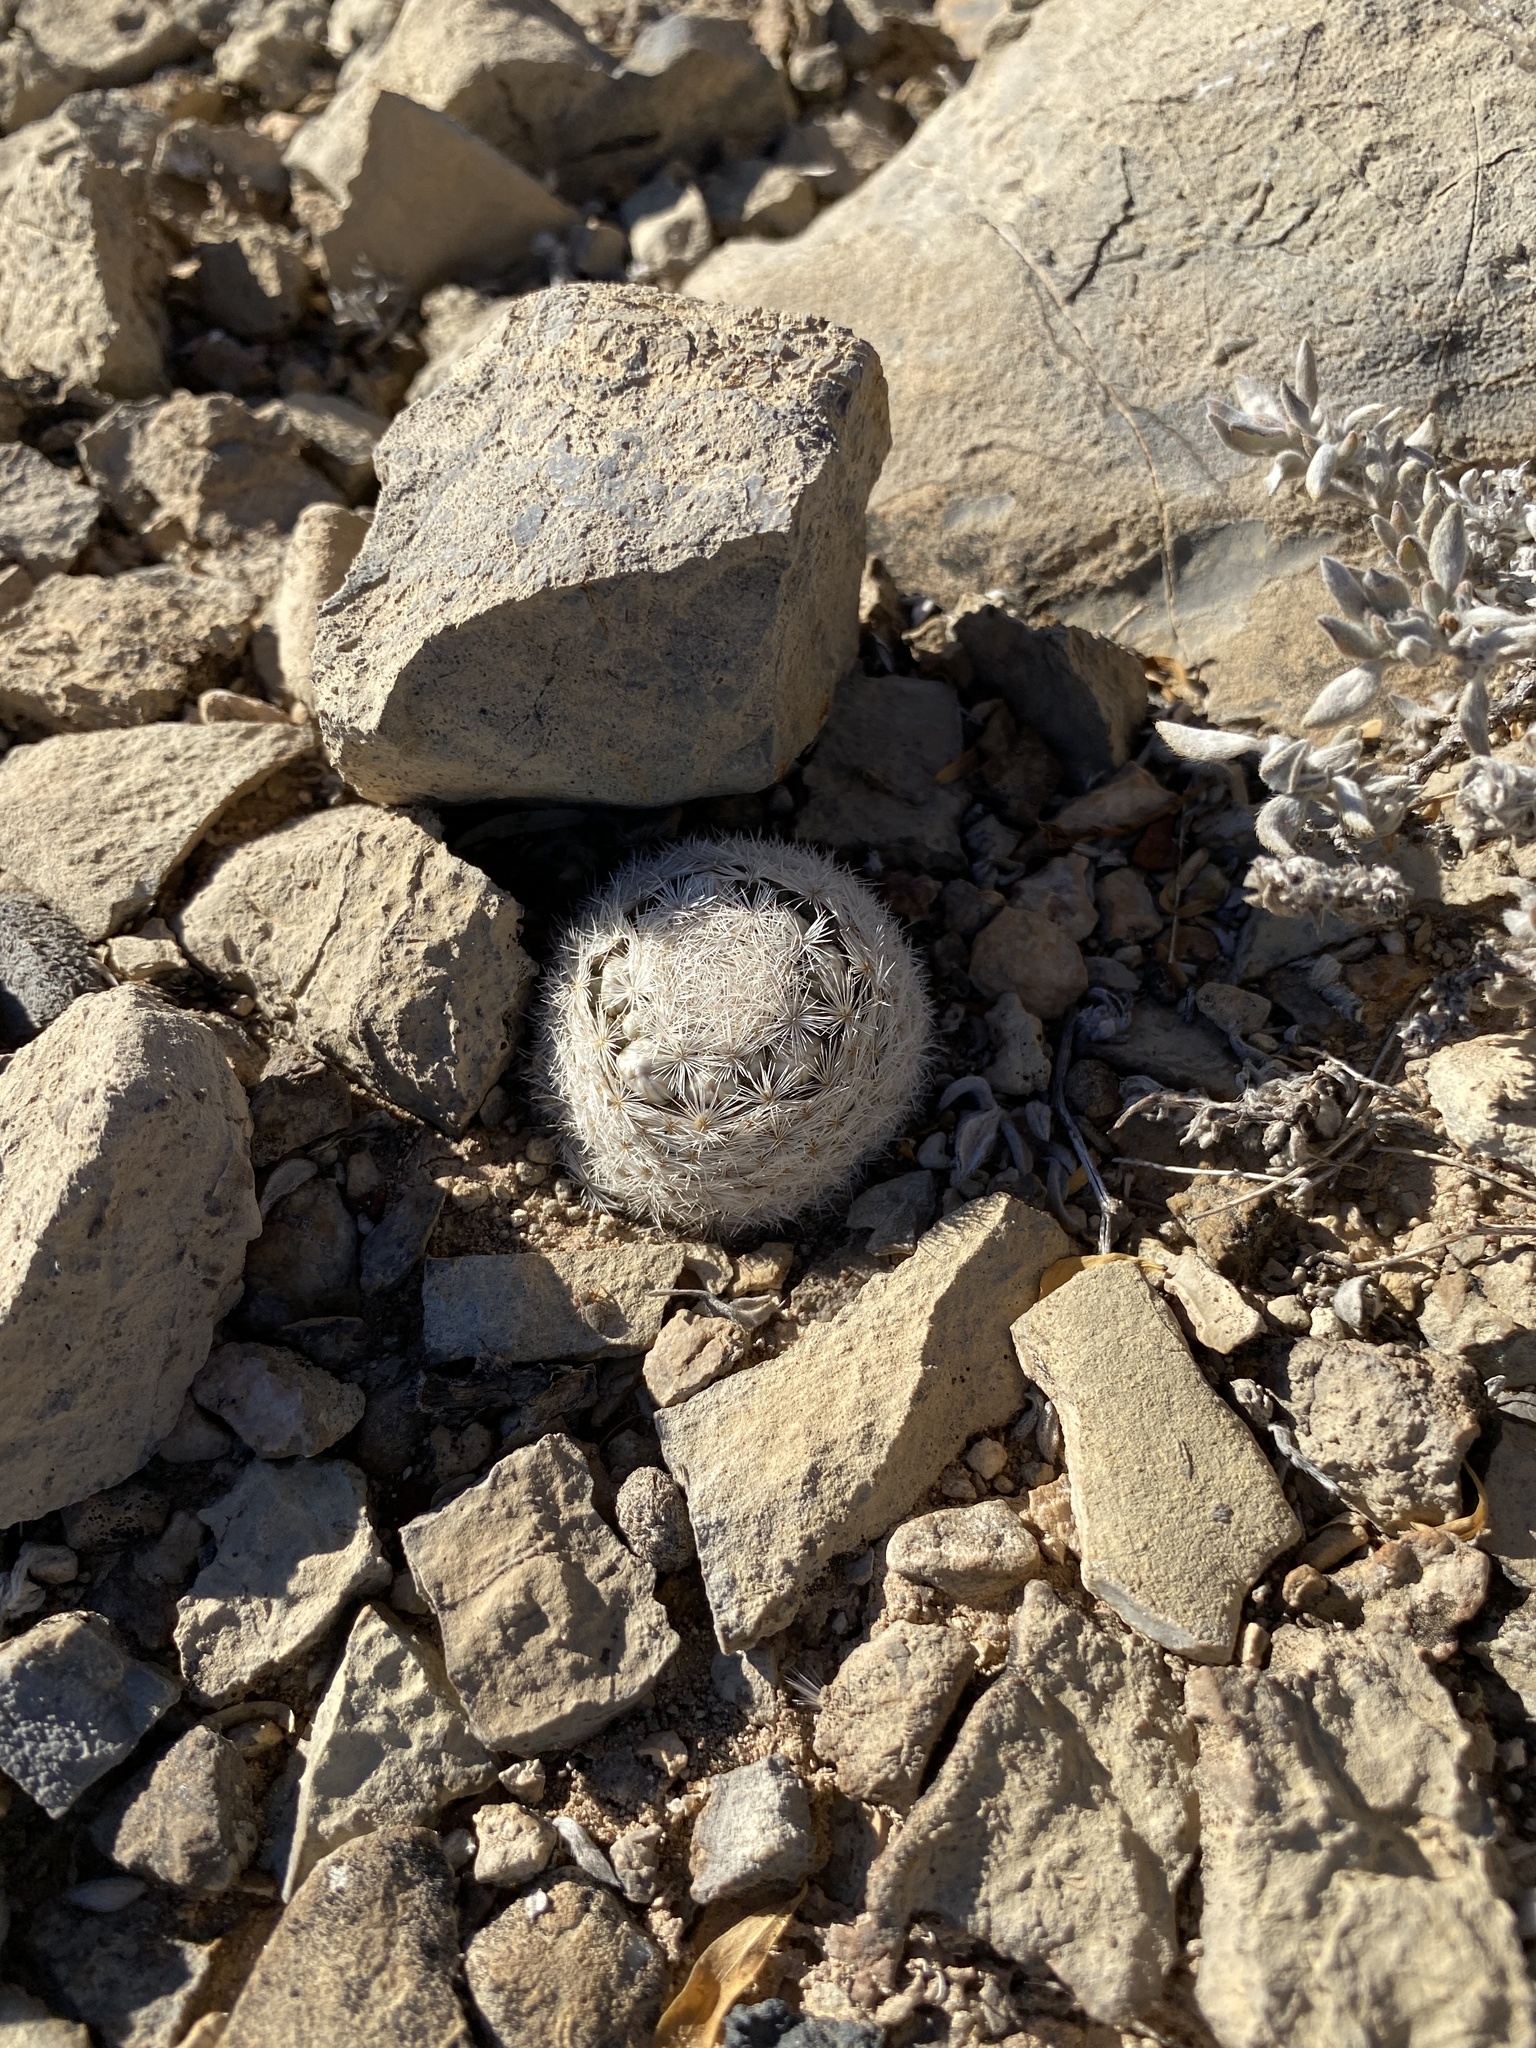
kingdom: Plantae
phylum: Tracheophyta
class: Magnoliopsida
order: Caryophyllales
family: Cactaceae
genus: Mammillaria
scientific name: Mammillaria lasiacantha
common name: Lace-spine nipple cactus
